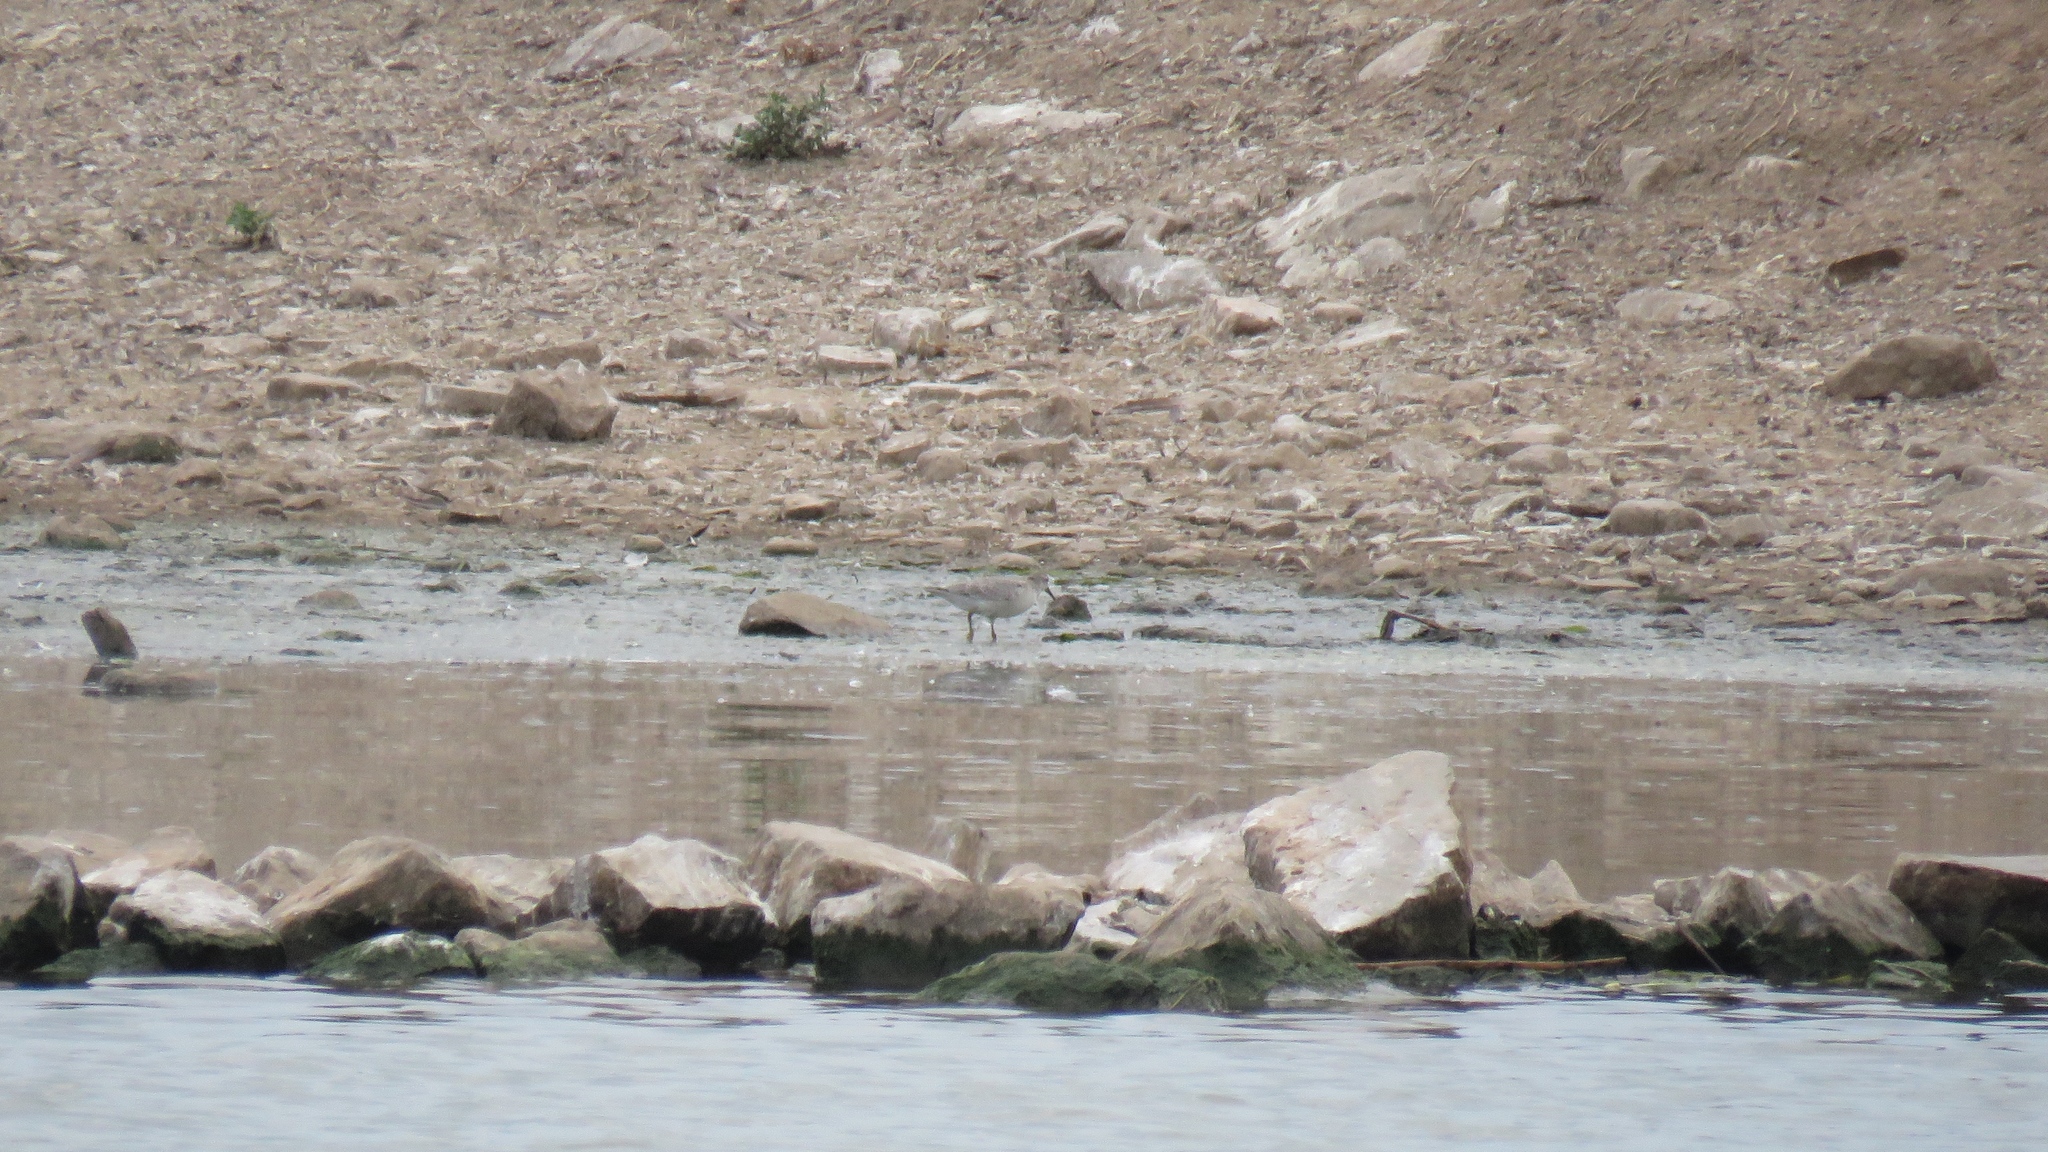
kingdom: Animalia
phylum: Chordata
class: Aves
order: Charadriiformes
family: Scolopacidae
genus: Calidris
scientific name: Calidris canutus
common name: Red knot
